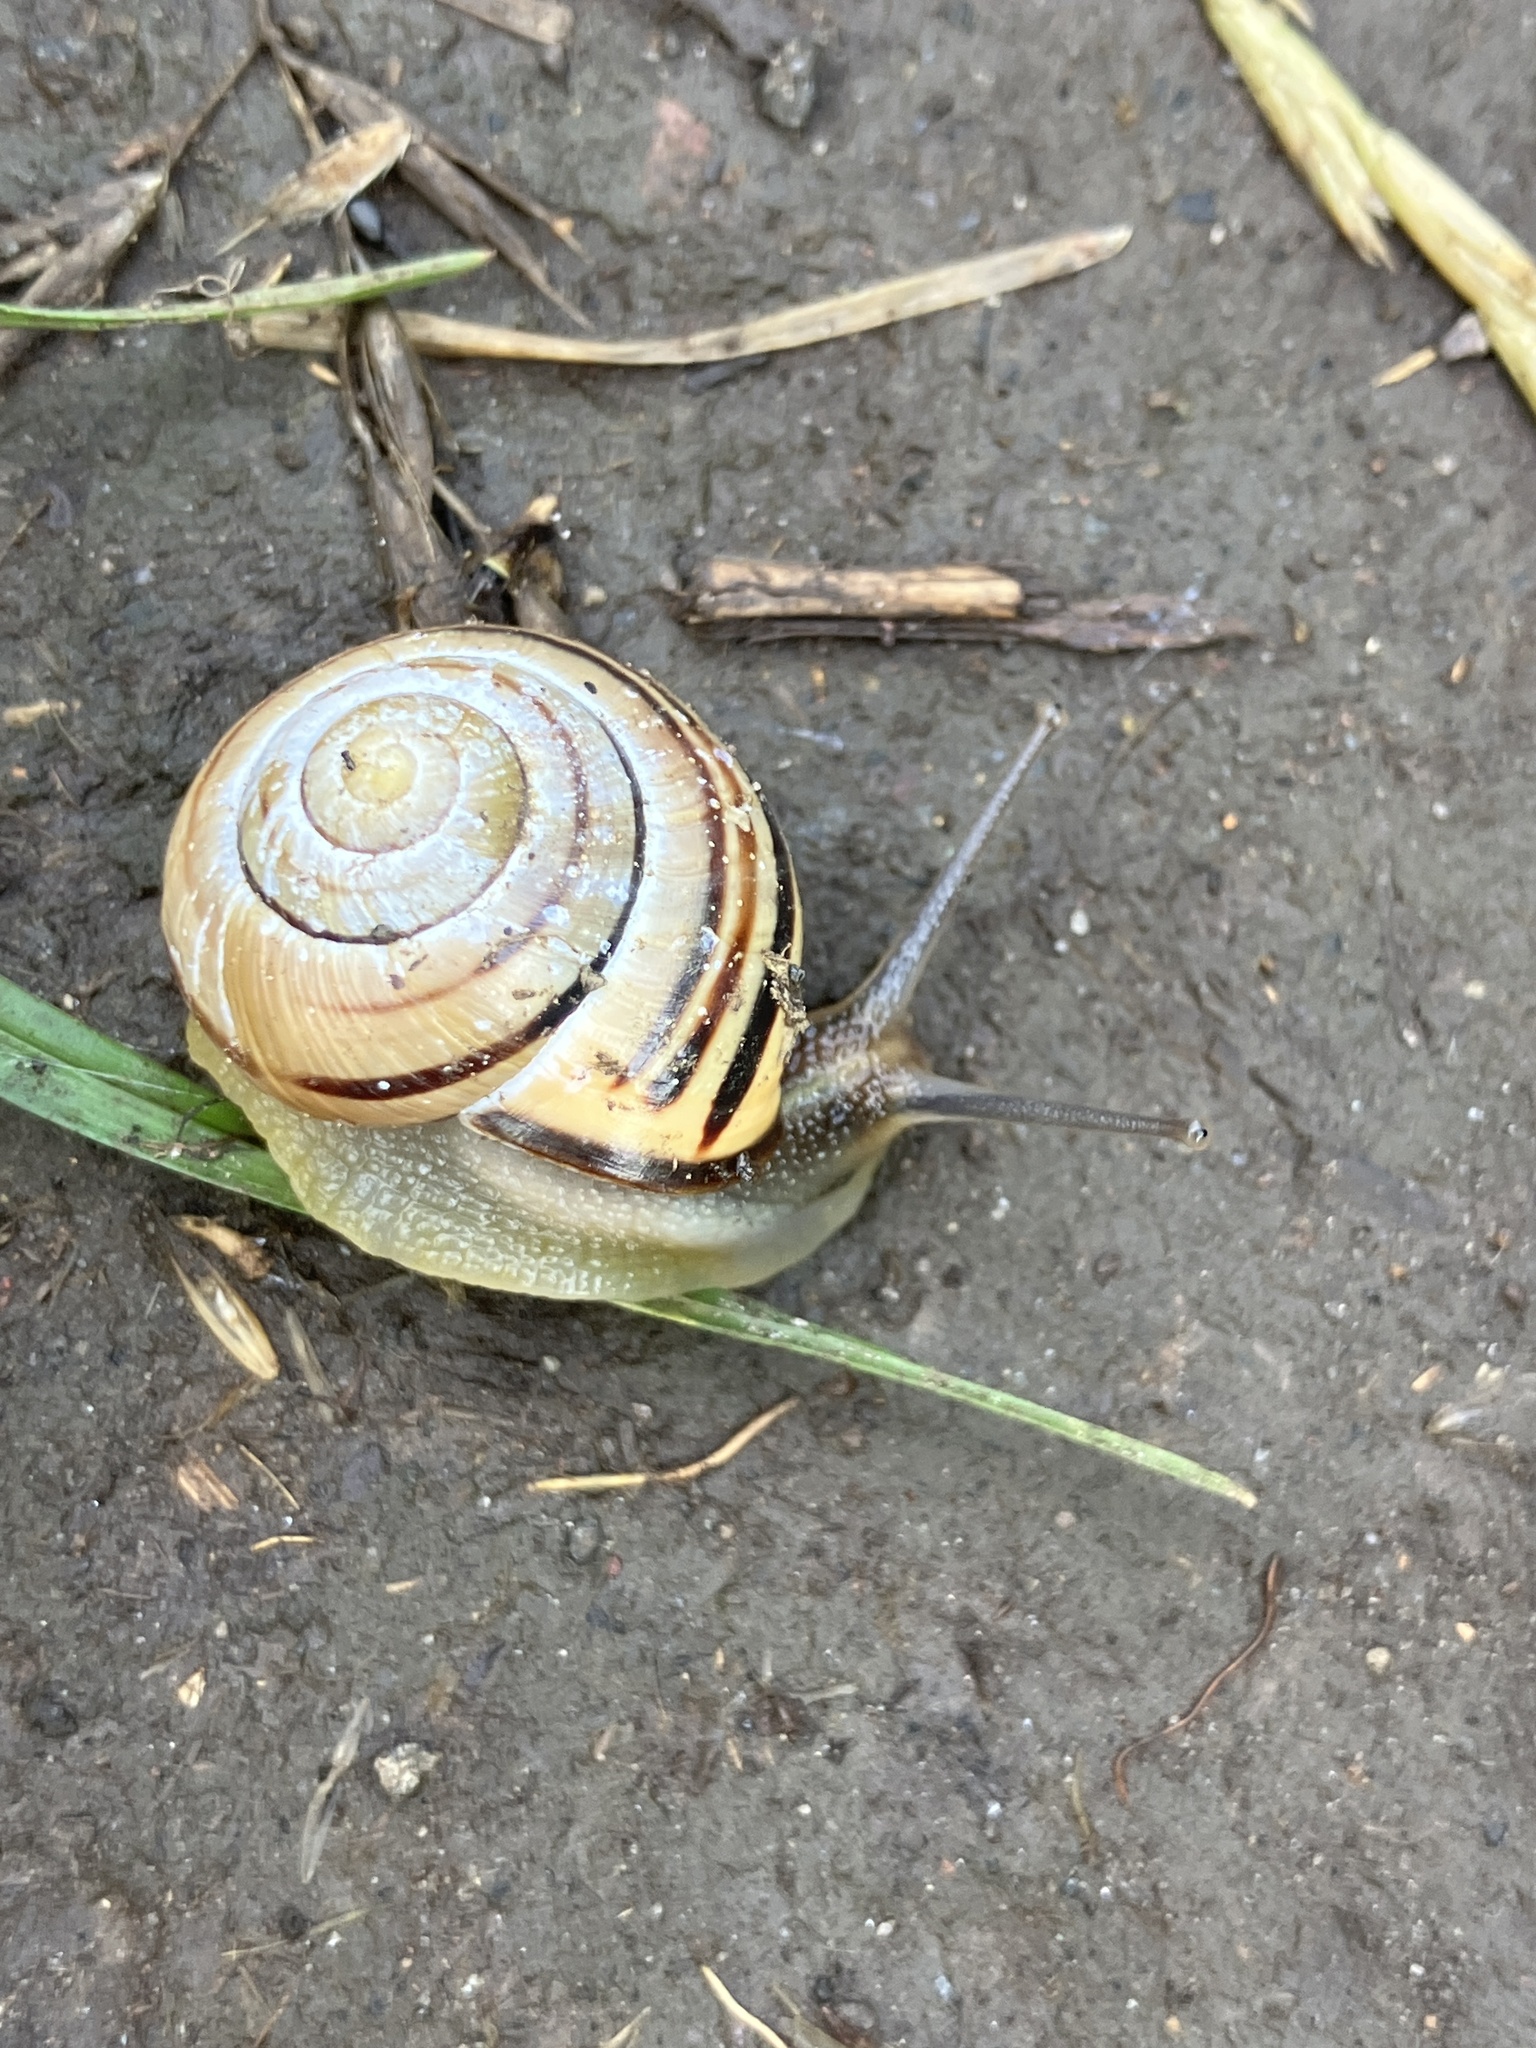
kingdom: Animalia
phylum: Mollusca
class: Gastropoda
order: Stylommatophora
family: Helicidae
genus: Cepaea
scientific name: Cepaea nemoralis
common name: Grovesnail
